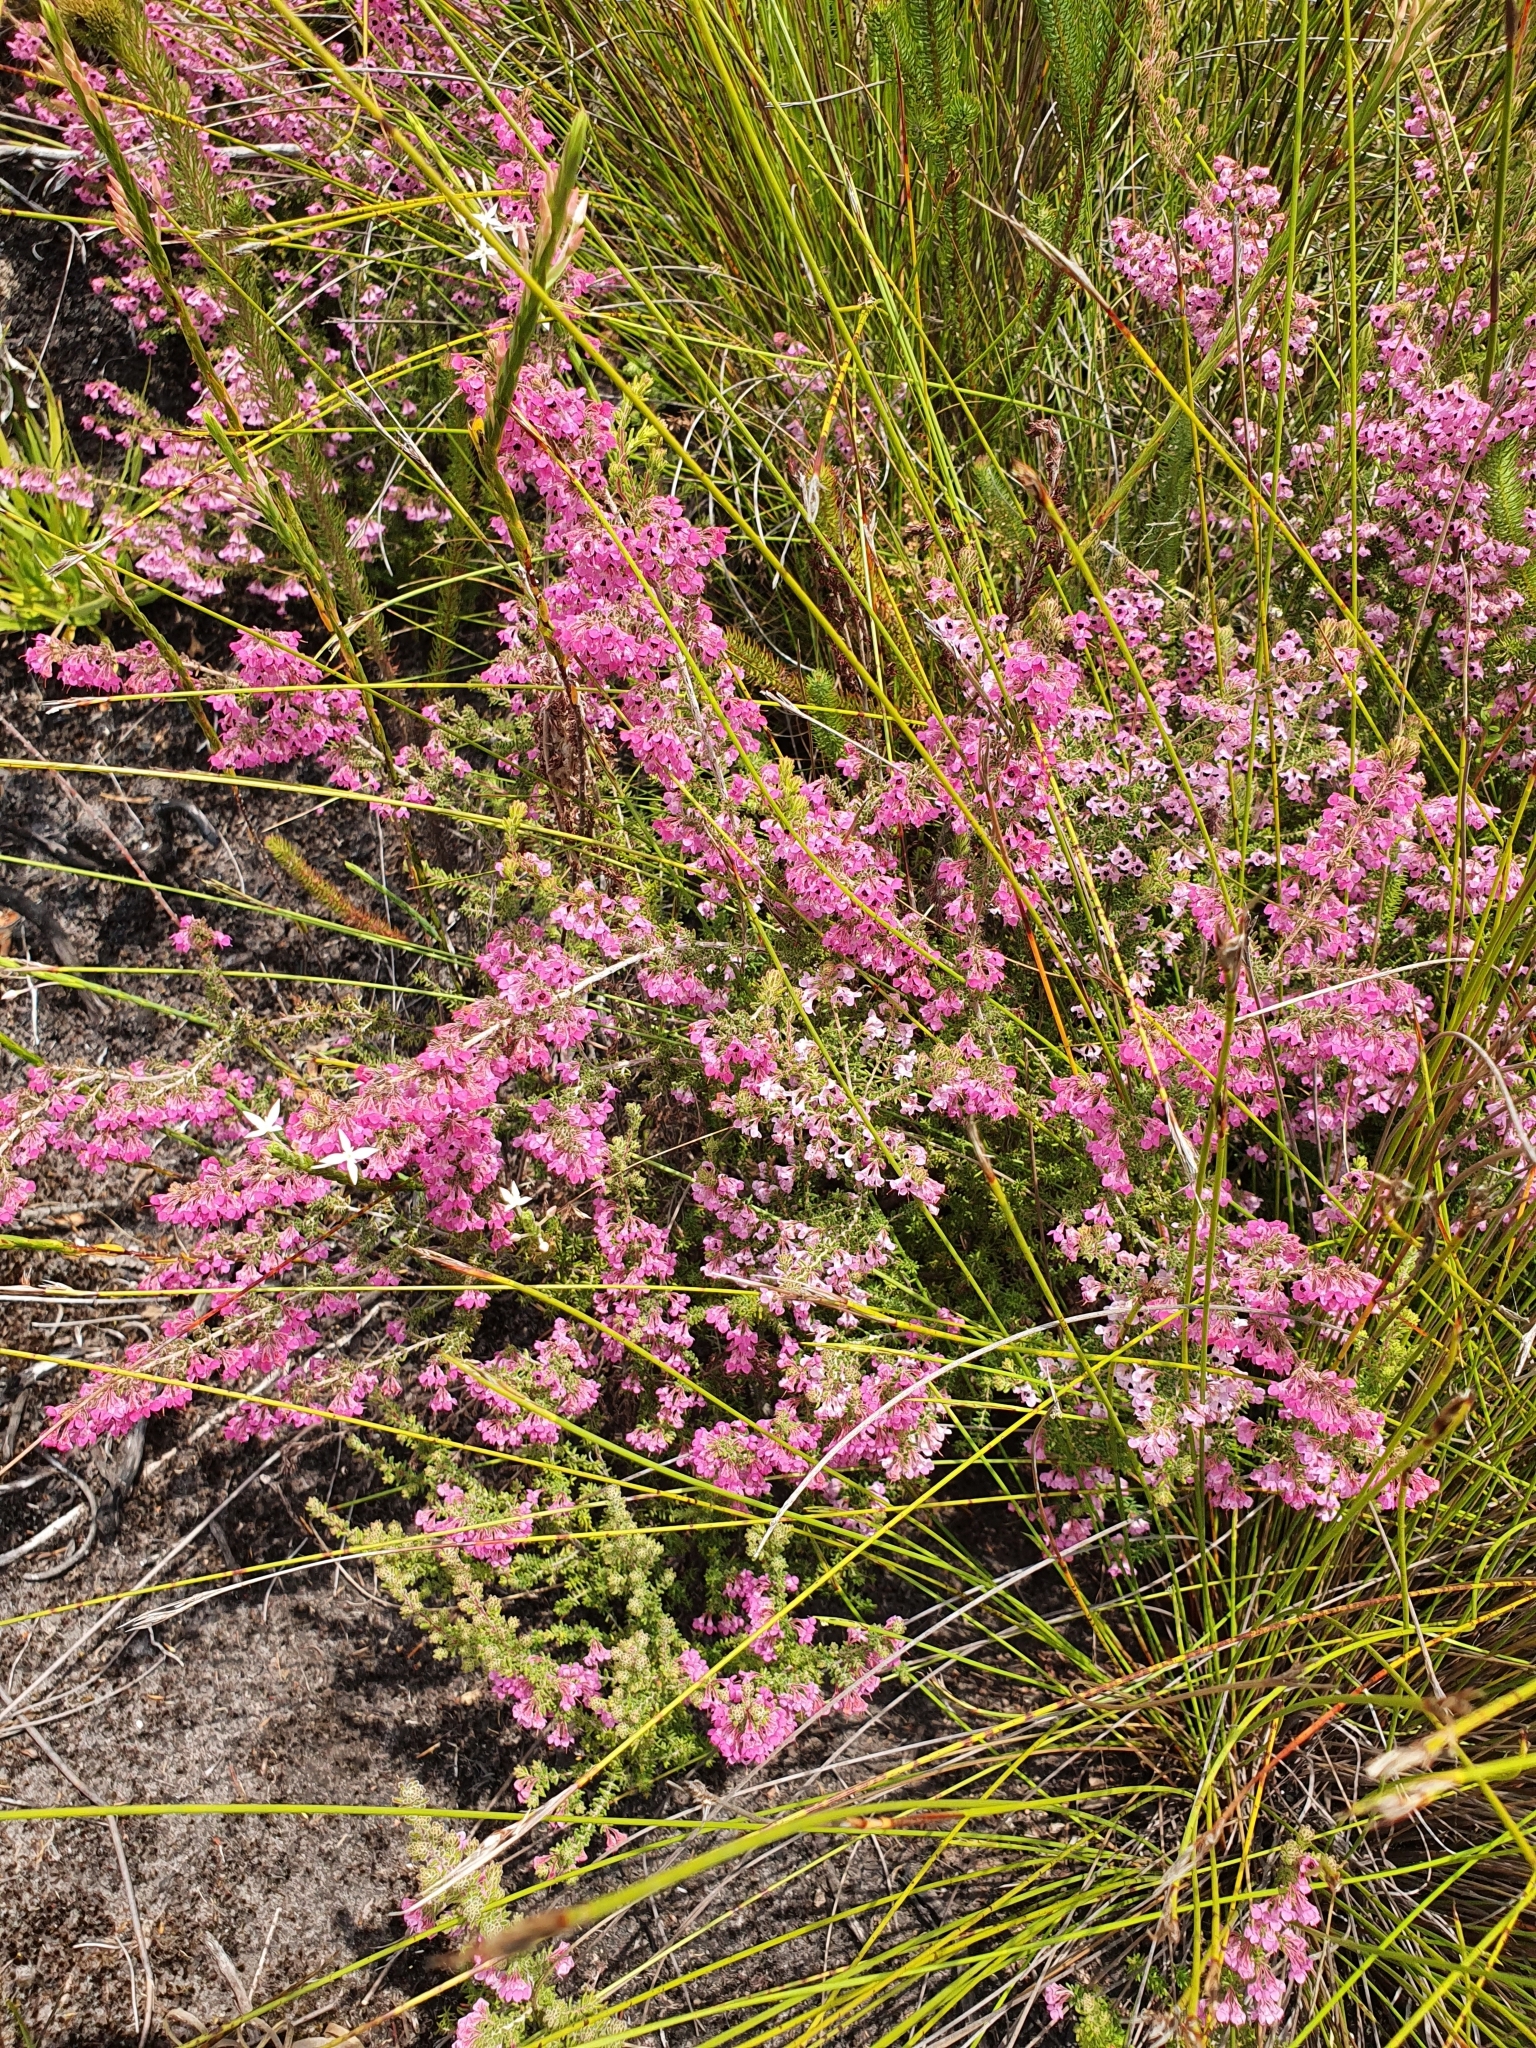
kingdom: Plantae
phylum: Tracheophyta
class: Magnoliopsida
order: Ericales
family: Ericaceae
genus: Erica
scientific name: Erica melanthera
